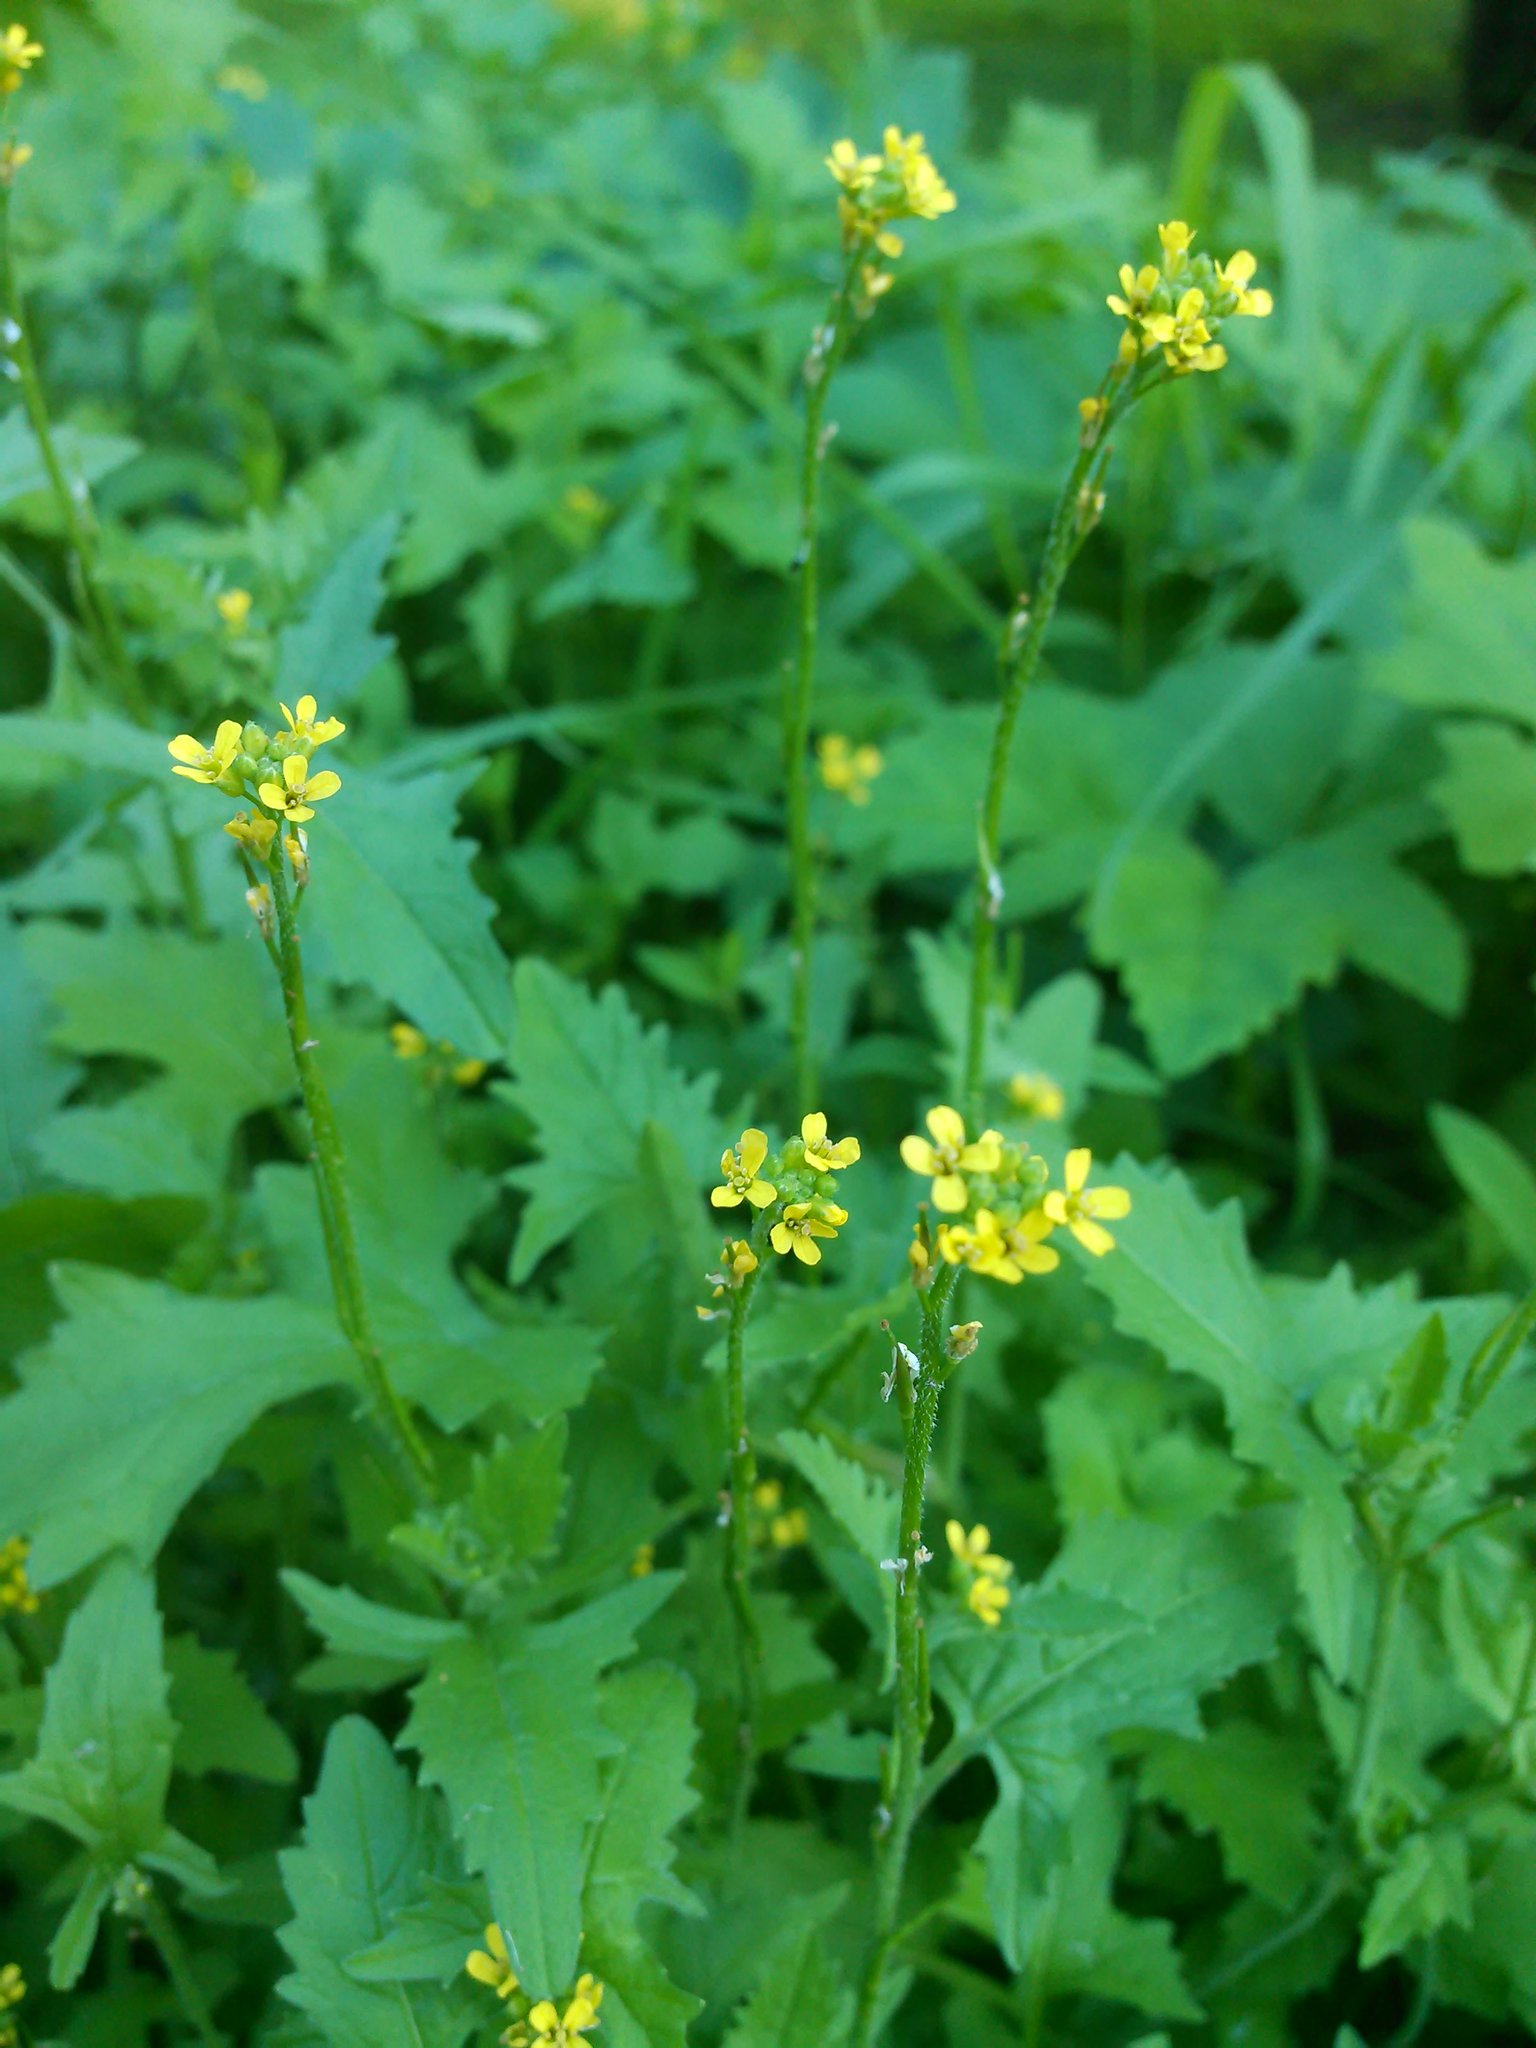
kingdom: Plantae
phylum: Tracheophyta
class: Magnoliopsida
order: Brassicales
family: Brassicaceae
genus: Sisymbrium
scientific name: Sisymbrium officinale
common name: Hedge mustard
